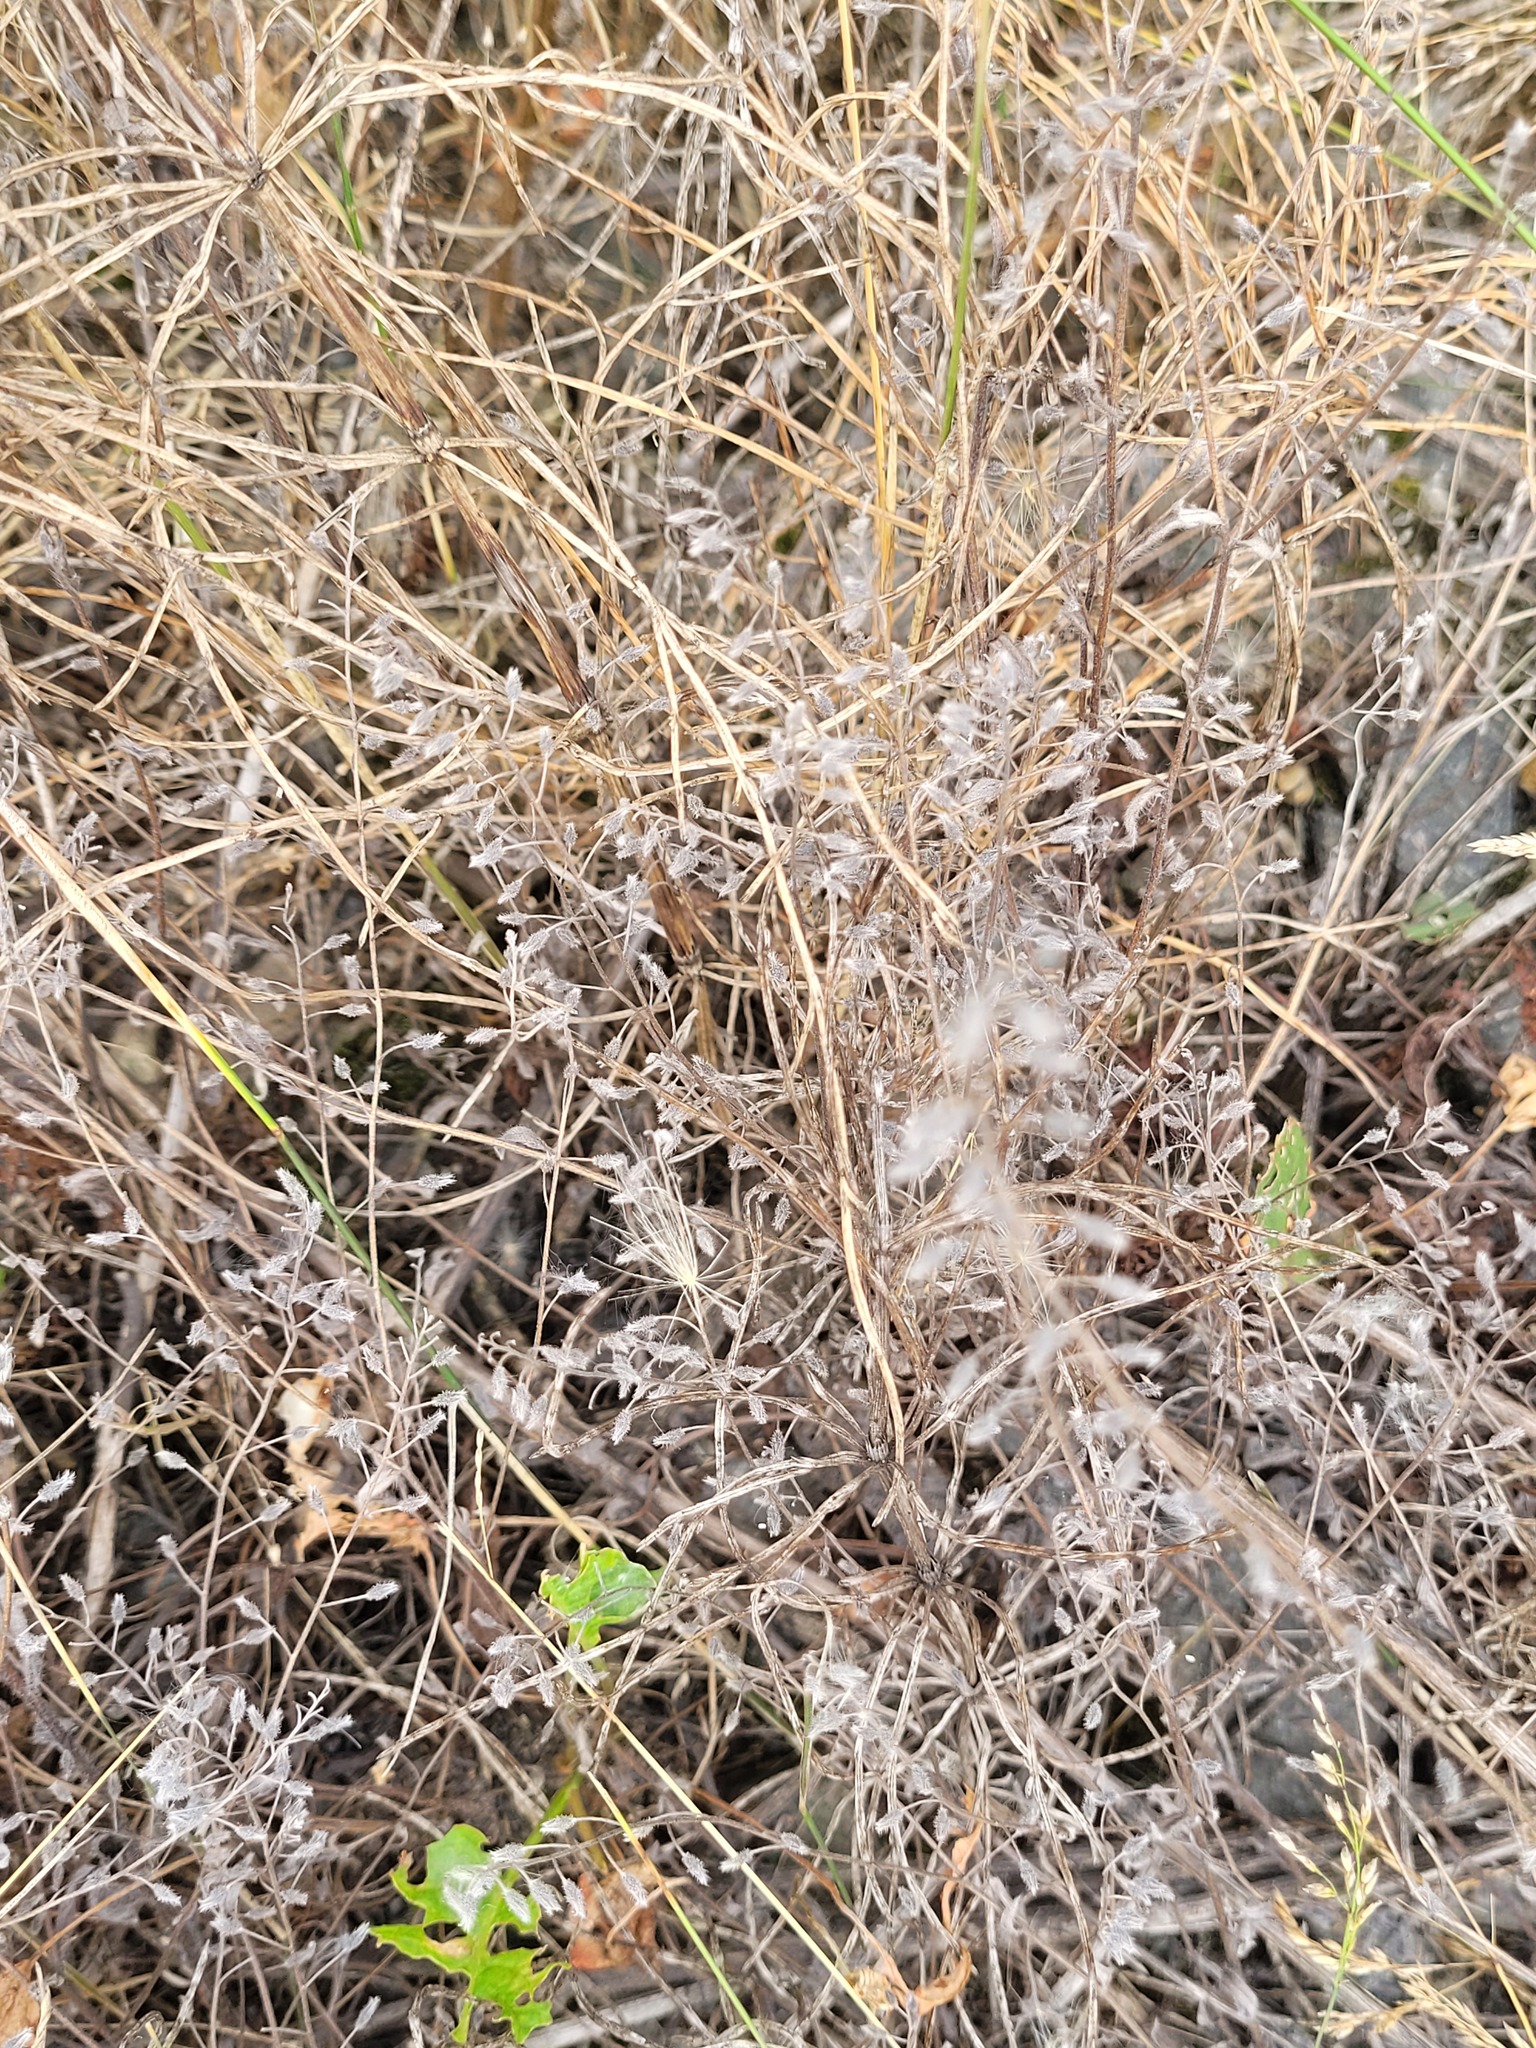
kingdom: Plantae
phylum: Tracheophyta
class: Magnoliopsida
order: Boraginales
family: Boraginaceae
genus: Myosotis
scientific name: Myosotis arvensis
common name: Field forget-me-not
